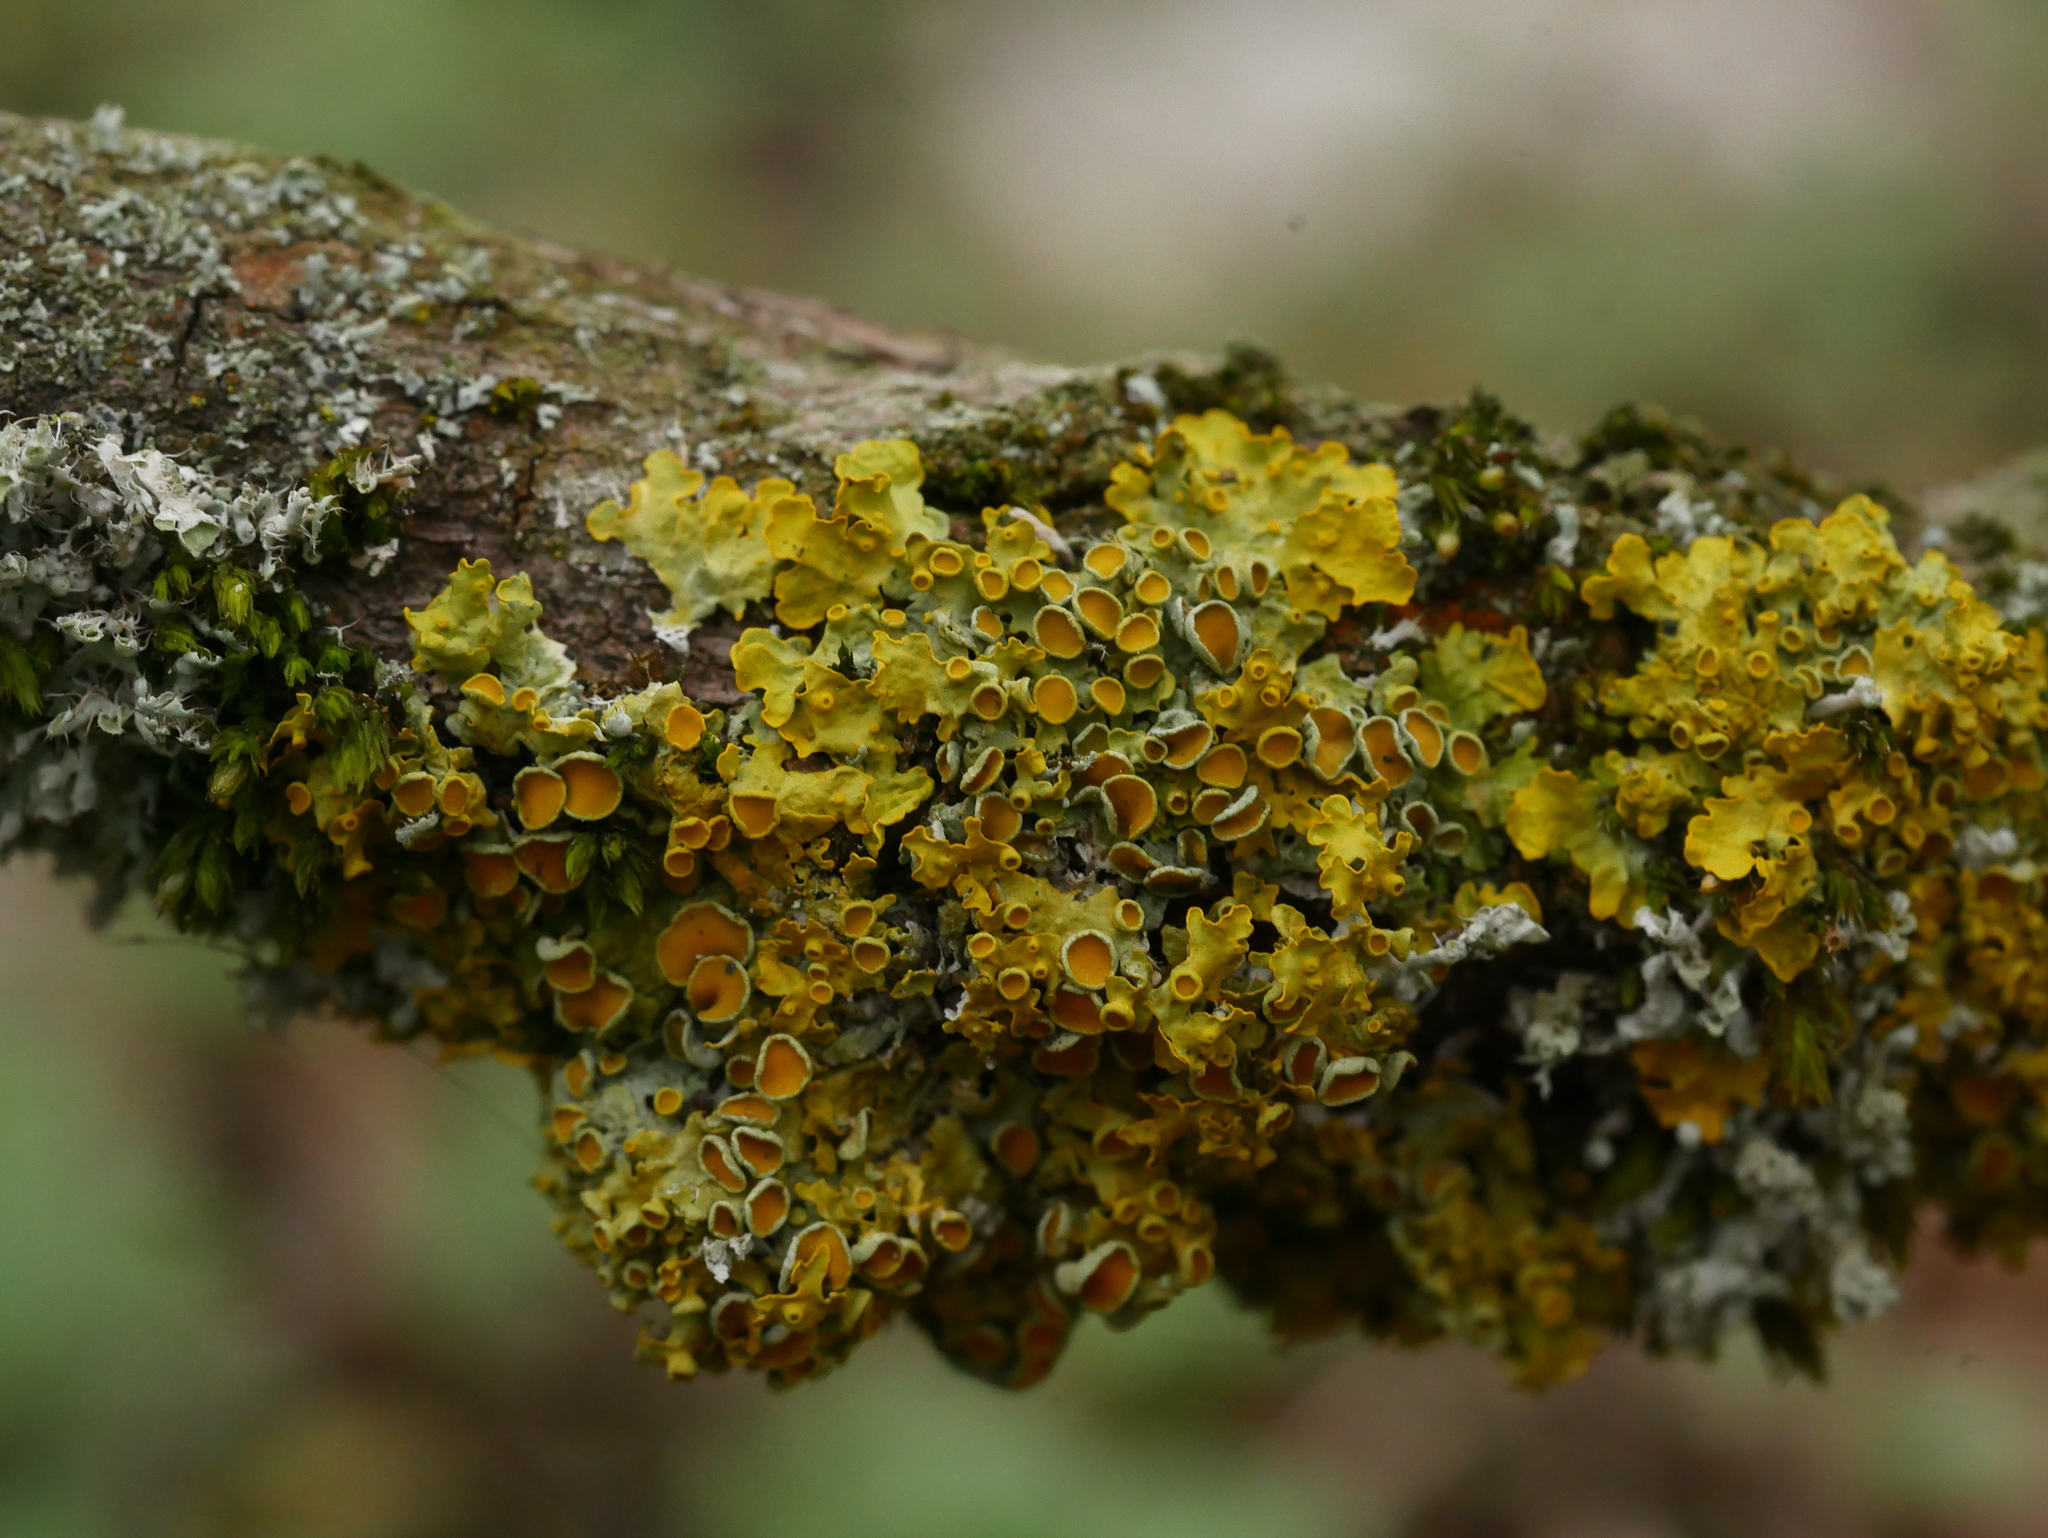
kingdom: Fungi
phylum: Ascomycota
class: Lecanoromycetes
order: Teloschistales
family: Teloschistaceae
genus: Xanthoria
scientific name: Xanthoria parietina
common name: Common orange lichen
